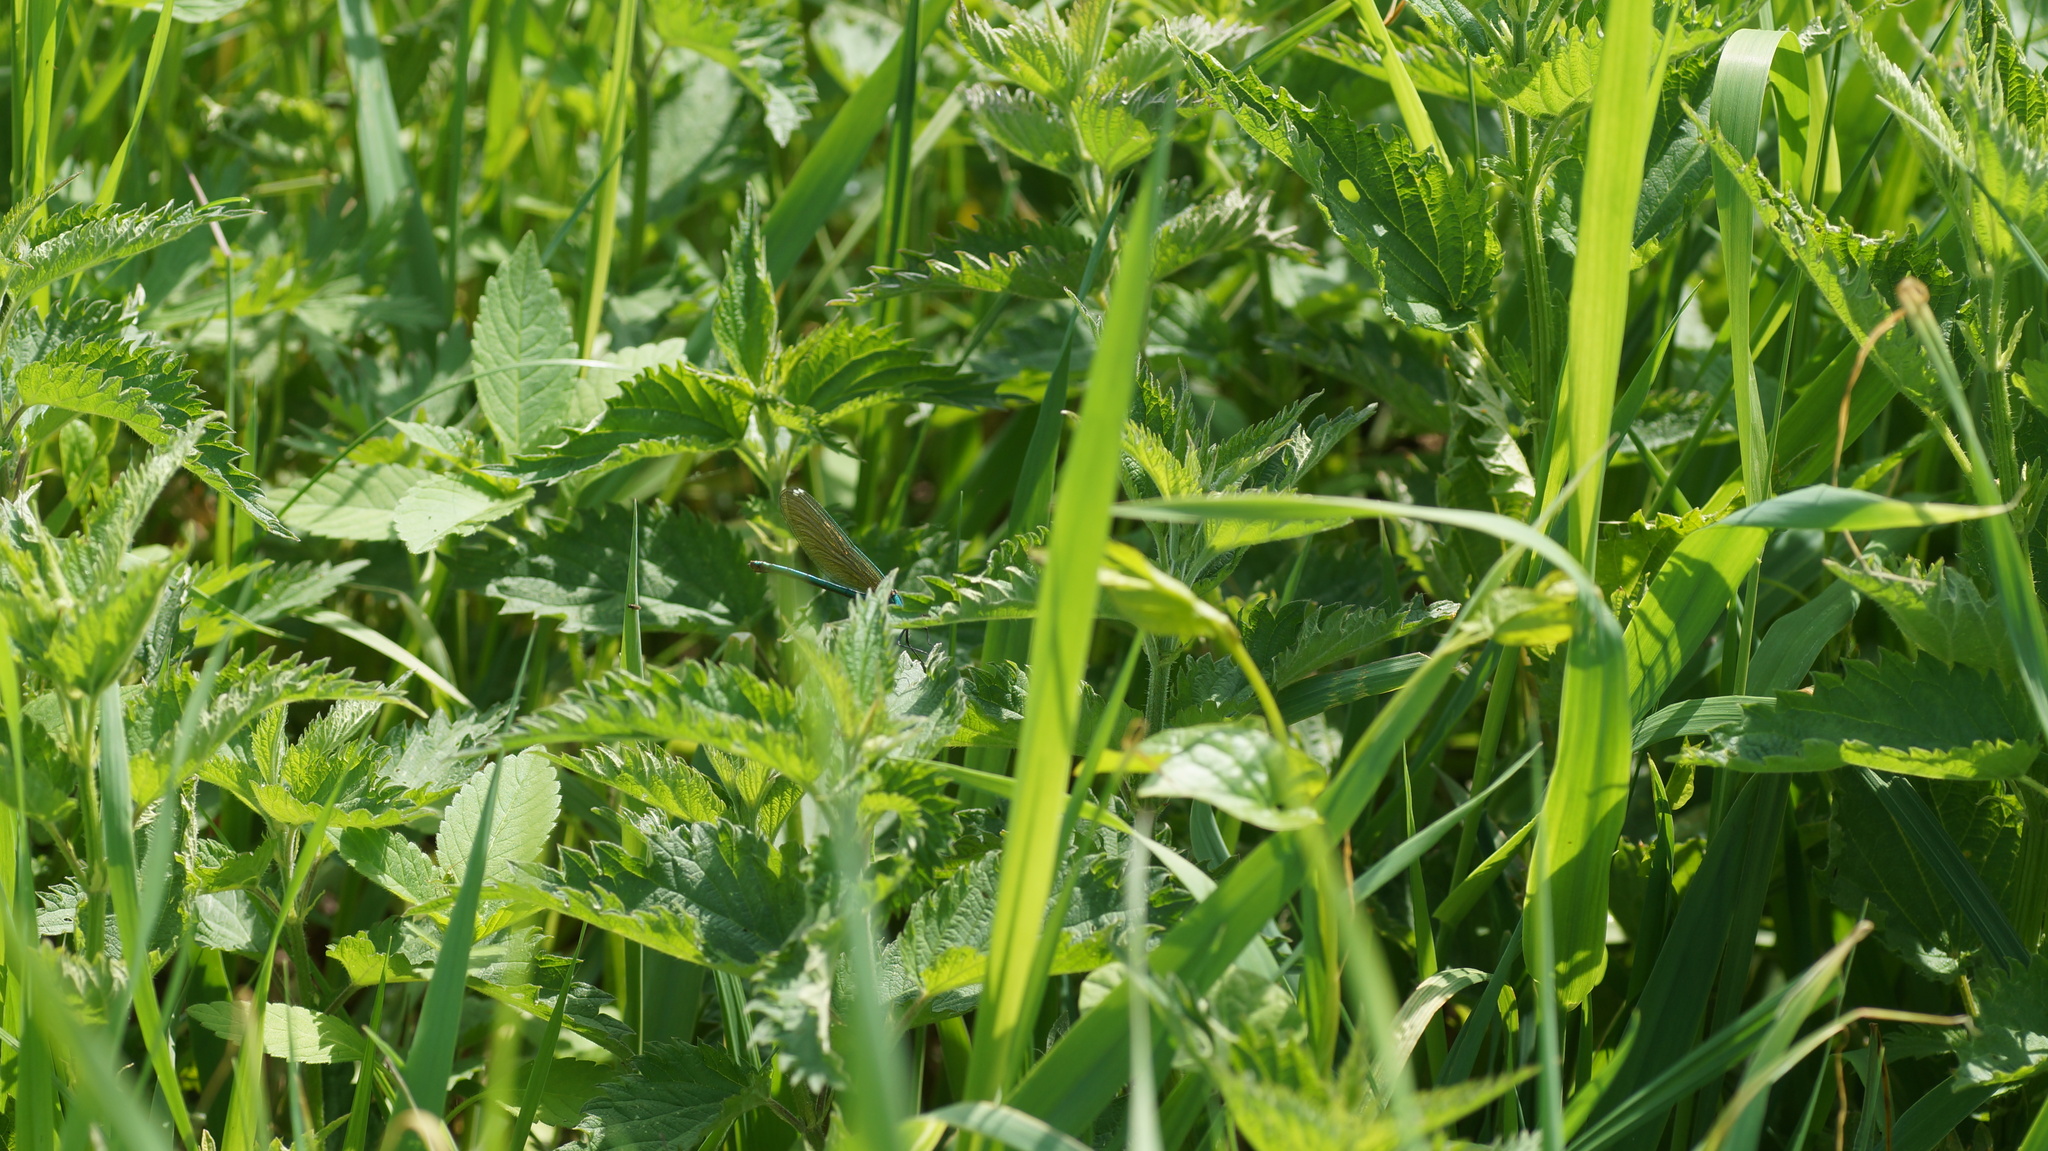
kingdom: Animalia
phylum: Arthropoda
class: Insecta
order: Odonata
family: Calopterygidae
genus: Calopteryx
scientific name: Calopteryx splendens
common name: Banded demoiselle
